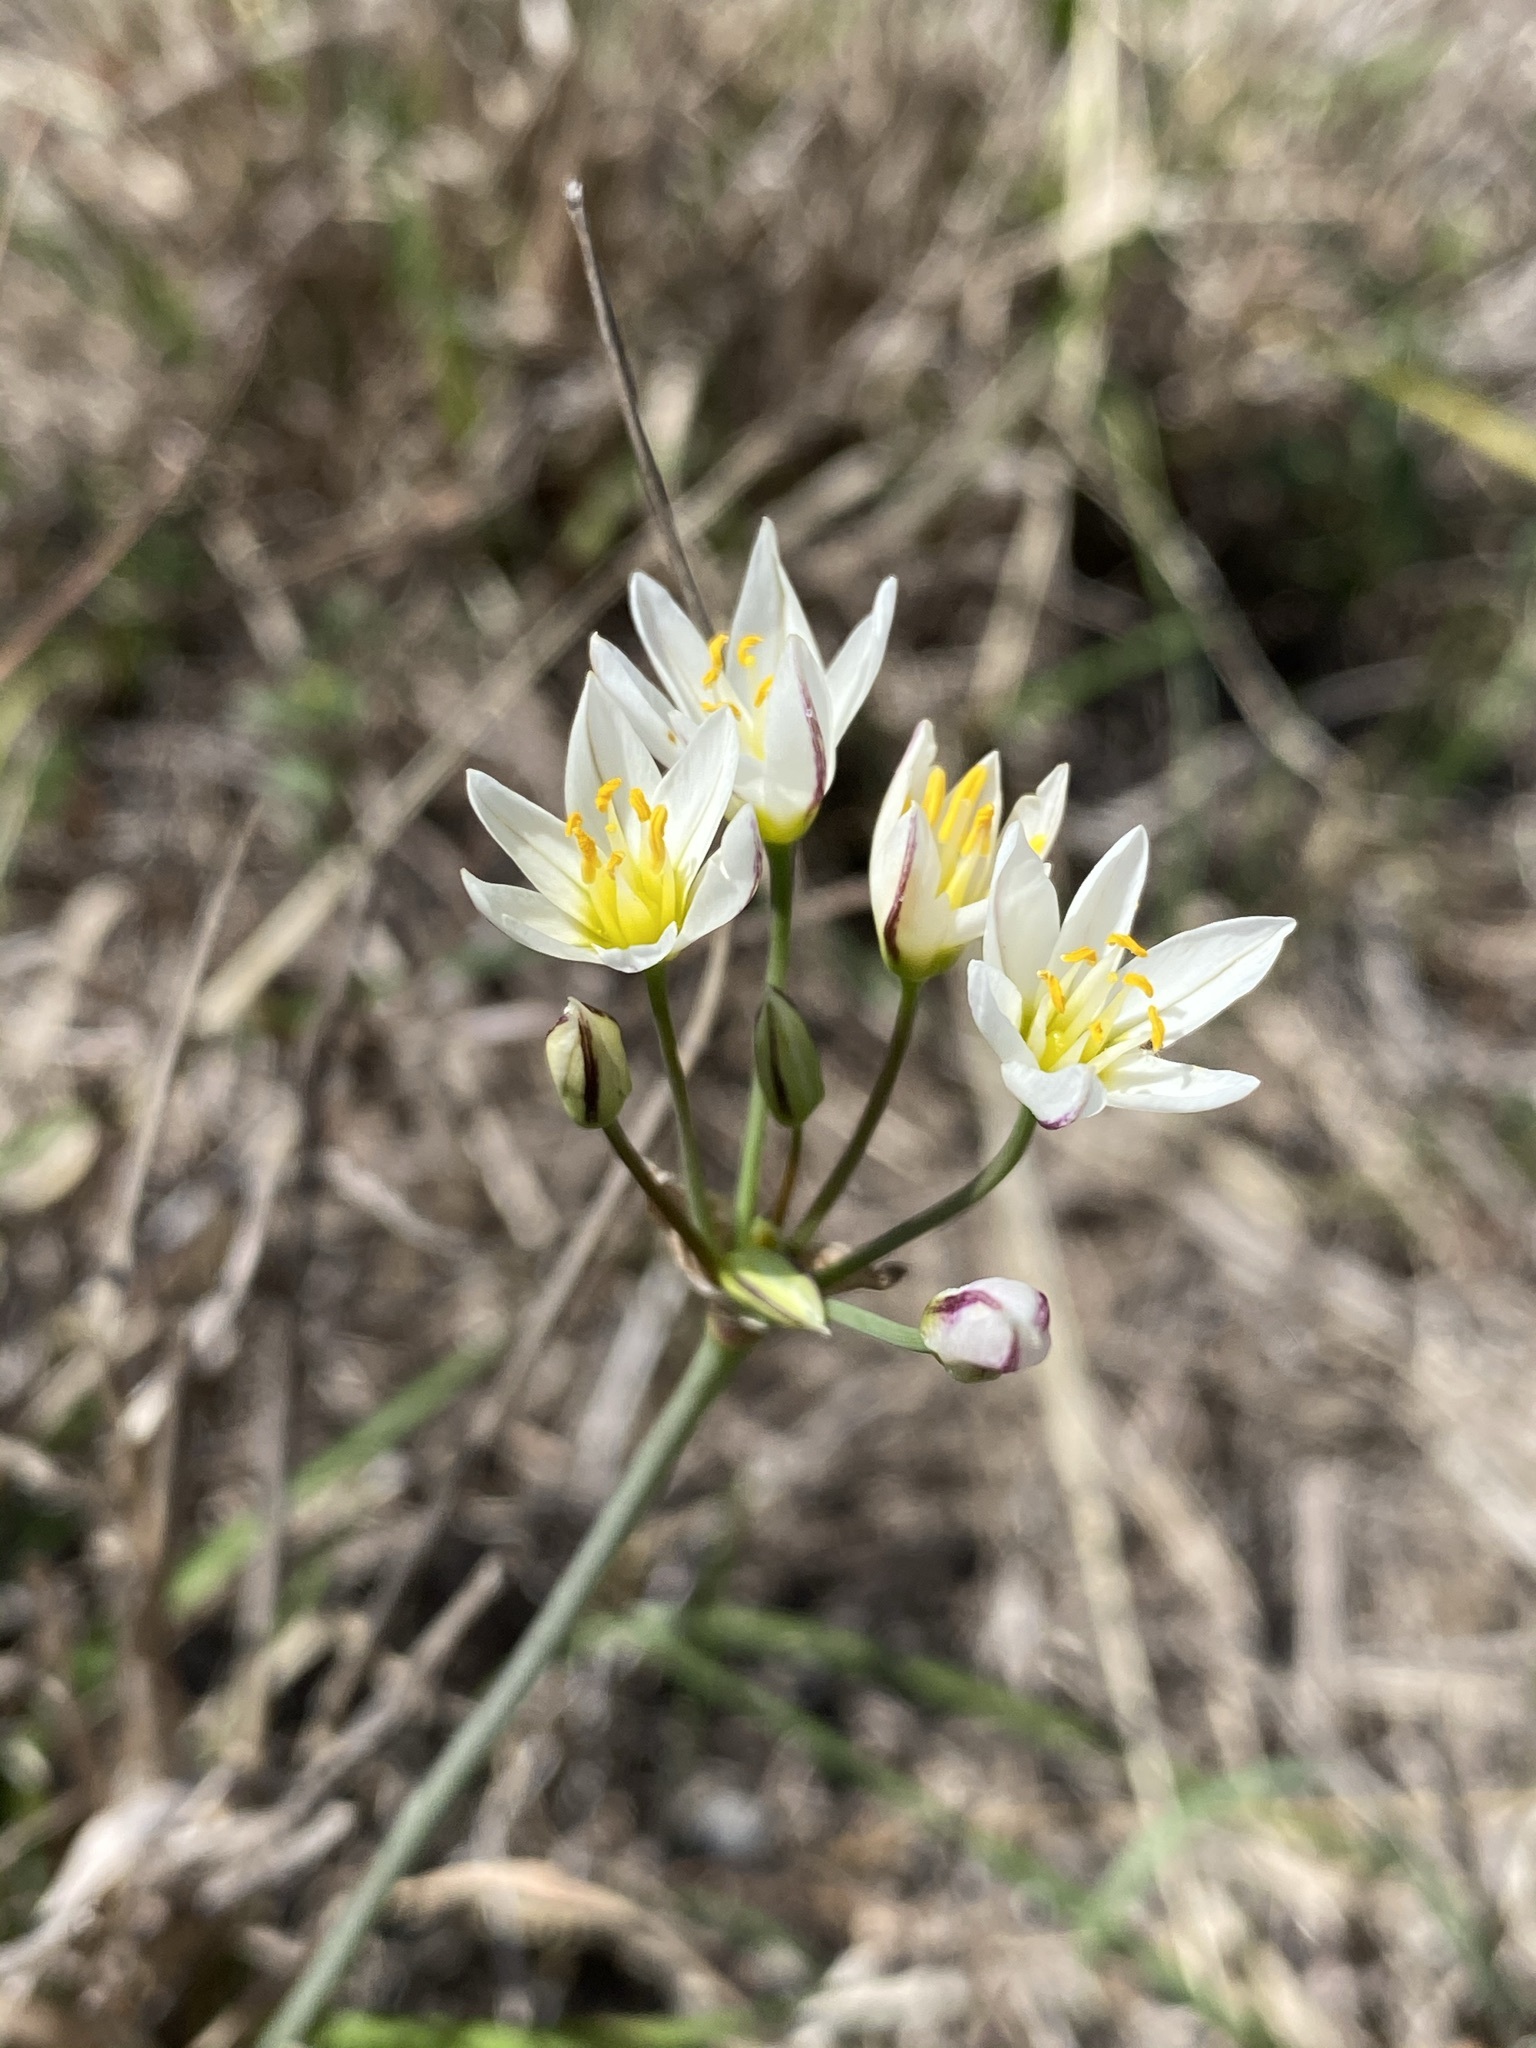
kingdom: Plantae
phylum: Tracheophyta
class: Liliopsida
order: Asparagales
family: Amaryllidaceae
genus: Nothoscordum
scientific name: Nothoscordum bivalve
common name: Crow-poison
